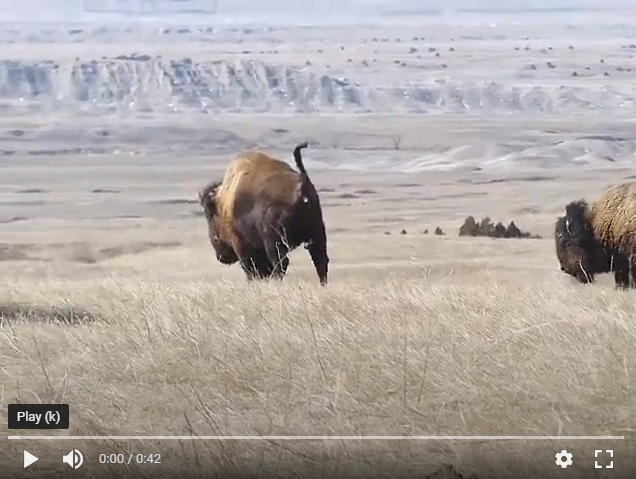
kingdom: Animalia
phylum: Chordata
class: Mammalia
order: Artiodactyla
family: Bovidae
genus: Bison
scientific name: Bison bison
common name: American bison
